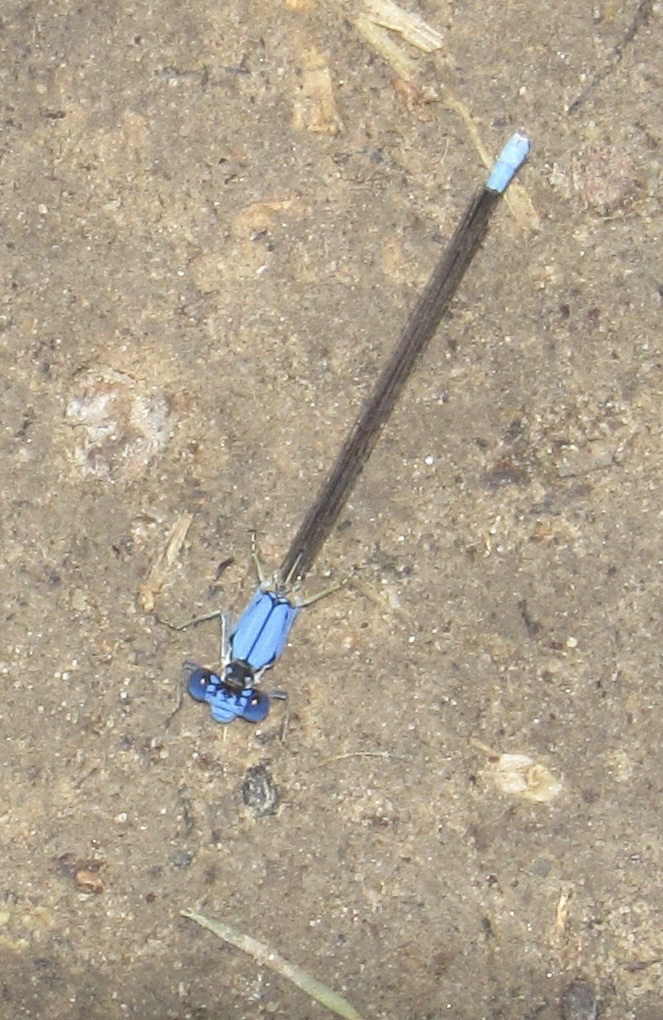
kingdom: Animalia
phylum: Arthropoda
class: Insecta
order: Odonata
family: Coenagrionidae
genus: Argia
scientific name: Argia apicalis
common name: Blue-fronted dancer
